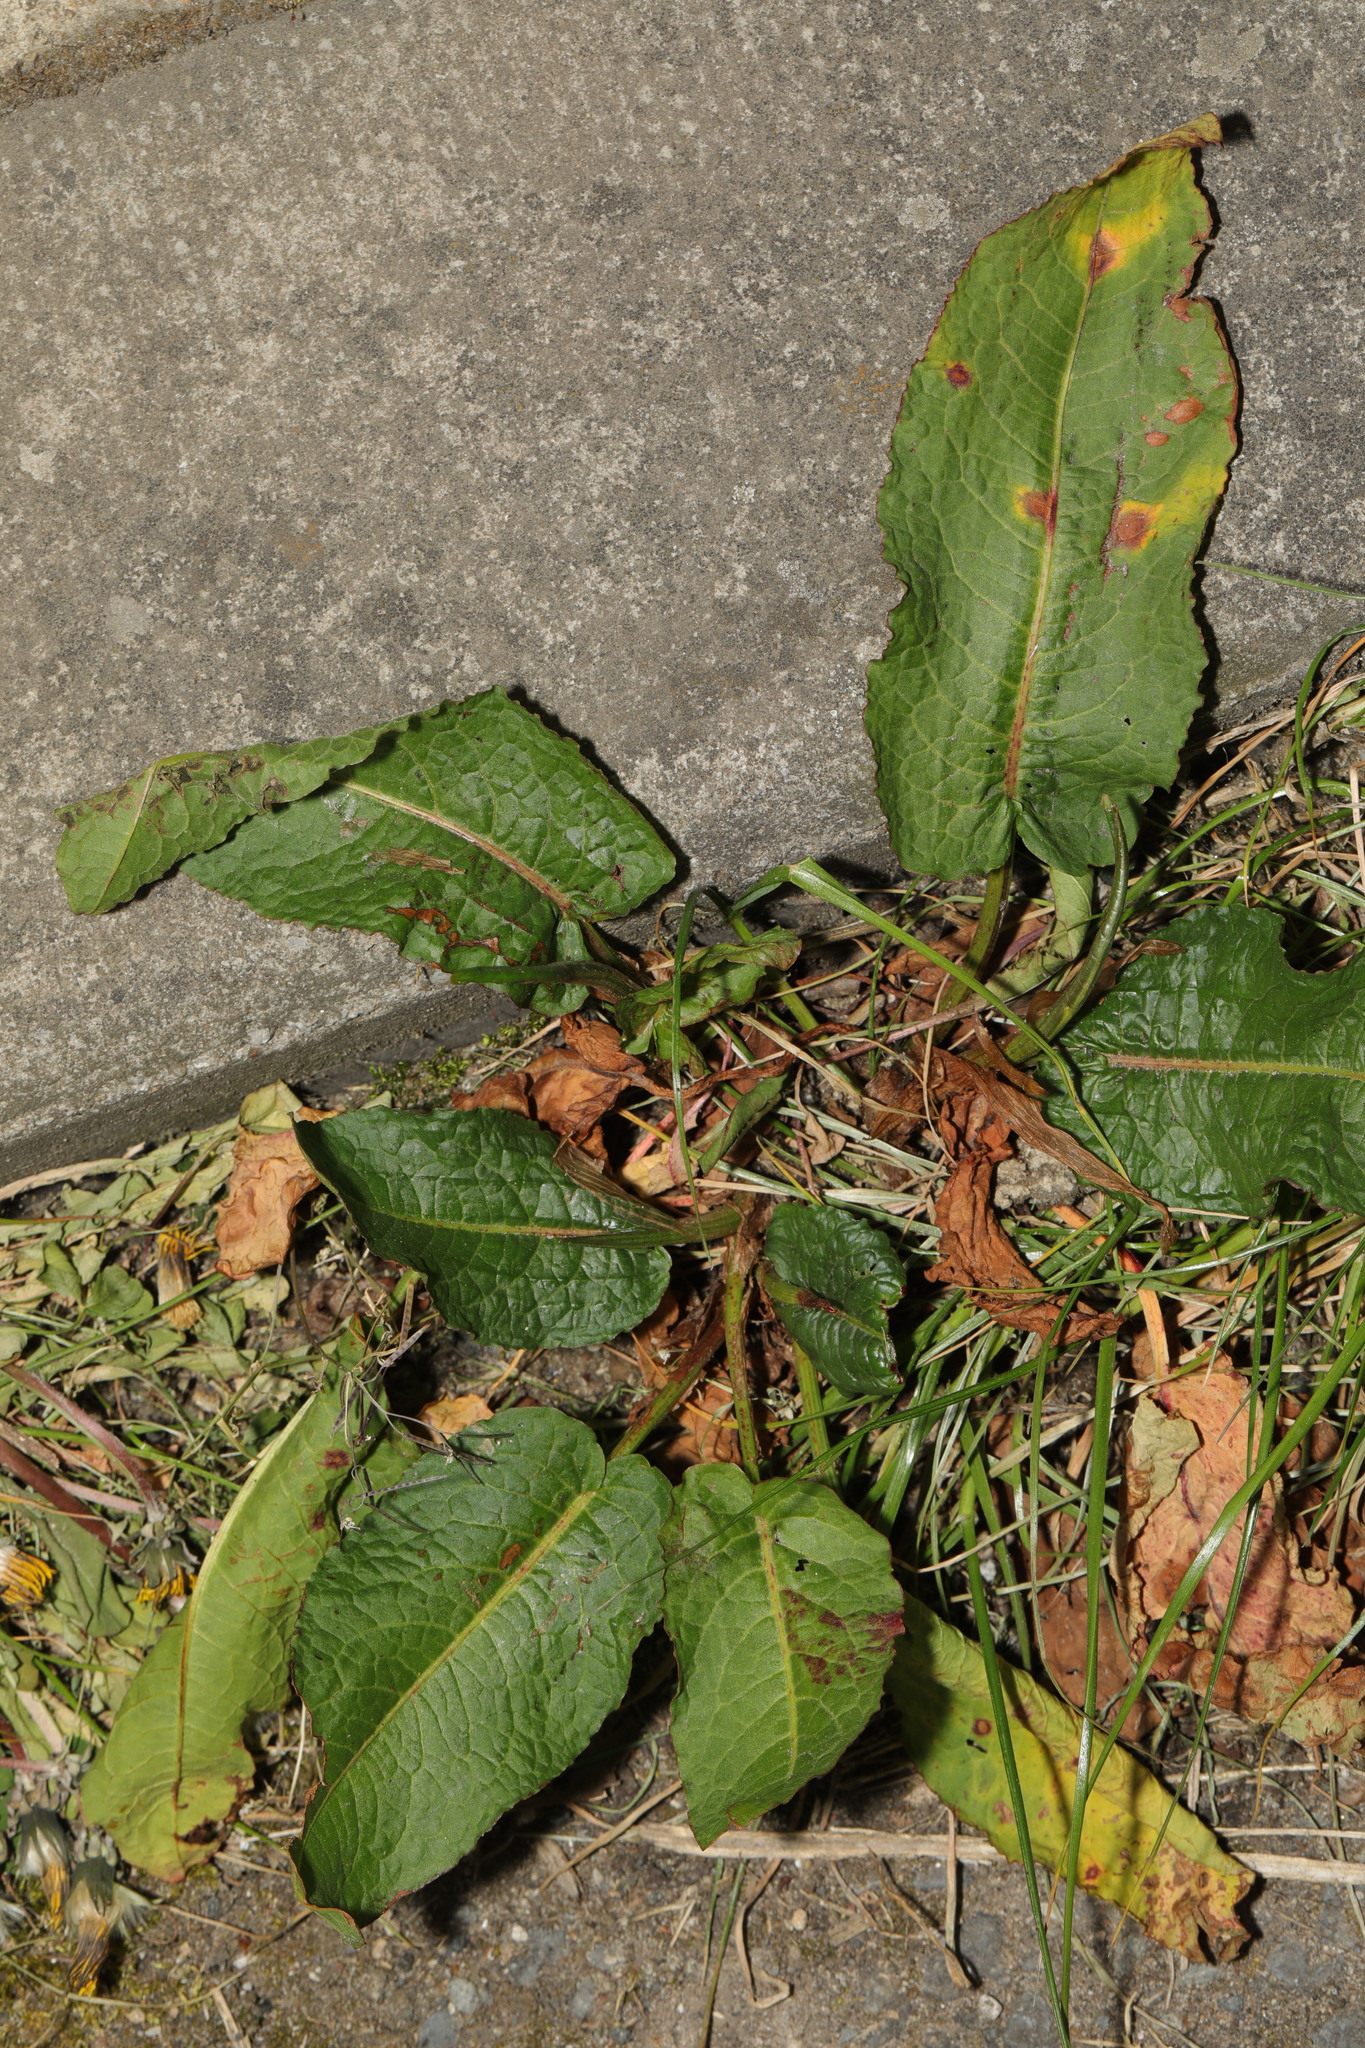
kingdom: Plantae
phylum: Tracheophyta
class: Magnoliopsida
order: Caryophyllales
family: Polygonaceae
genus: Rumex
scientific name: Rumex obtusifolius
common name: Bitter dock
